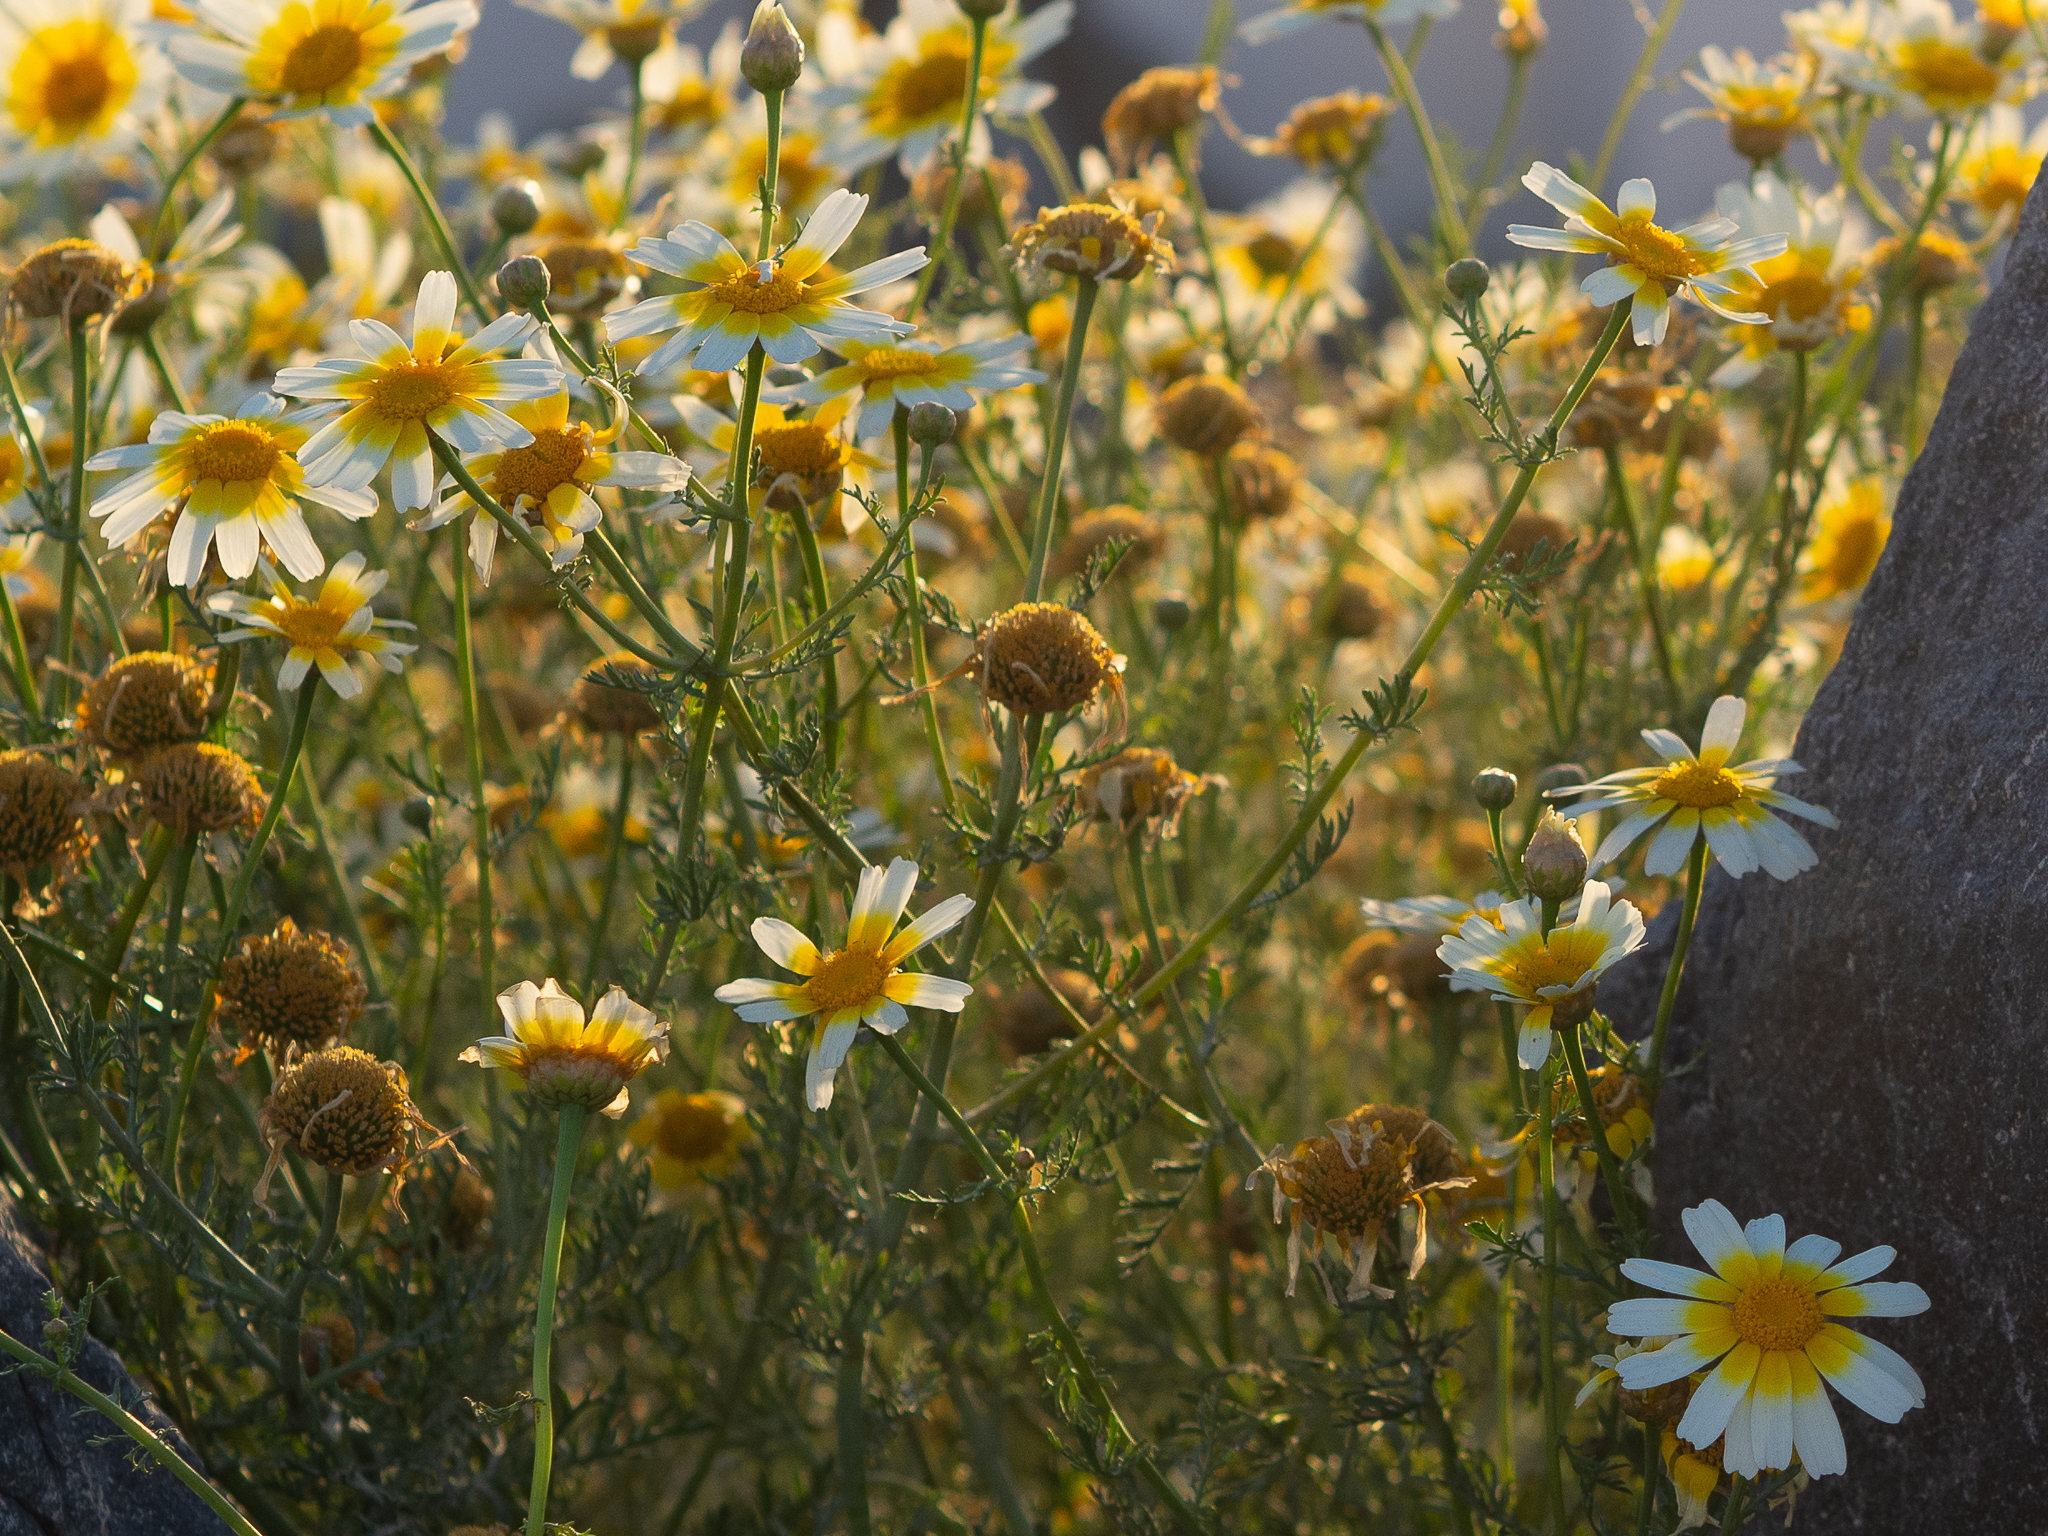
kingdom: Plantae
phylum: Tracheophyta
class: Magnoliopsida
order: Asterales
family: Asteraceae
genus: Glebionis
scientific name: Glebionis coronaria
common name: Crowndaisy
